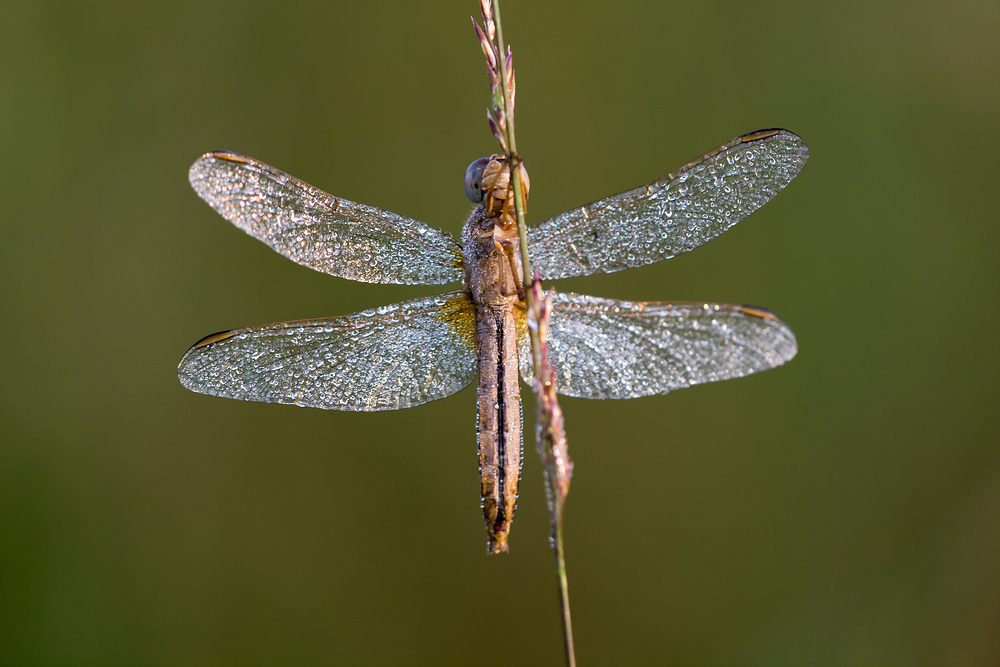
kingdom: Animalia
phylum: Arthropoda
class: Insecta
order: Odonata
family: Libellulidae
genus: Crocothemis
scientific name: Crocothemis erythraea
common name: Scarlet dragonfly
